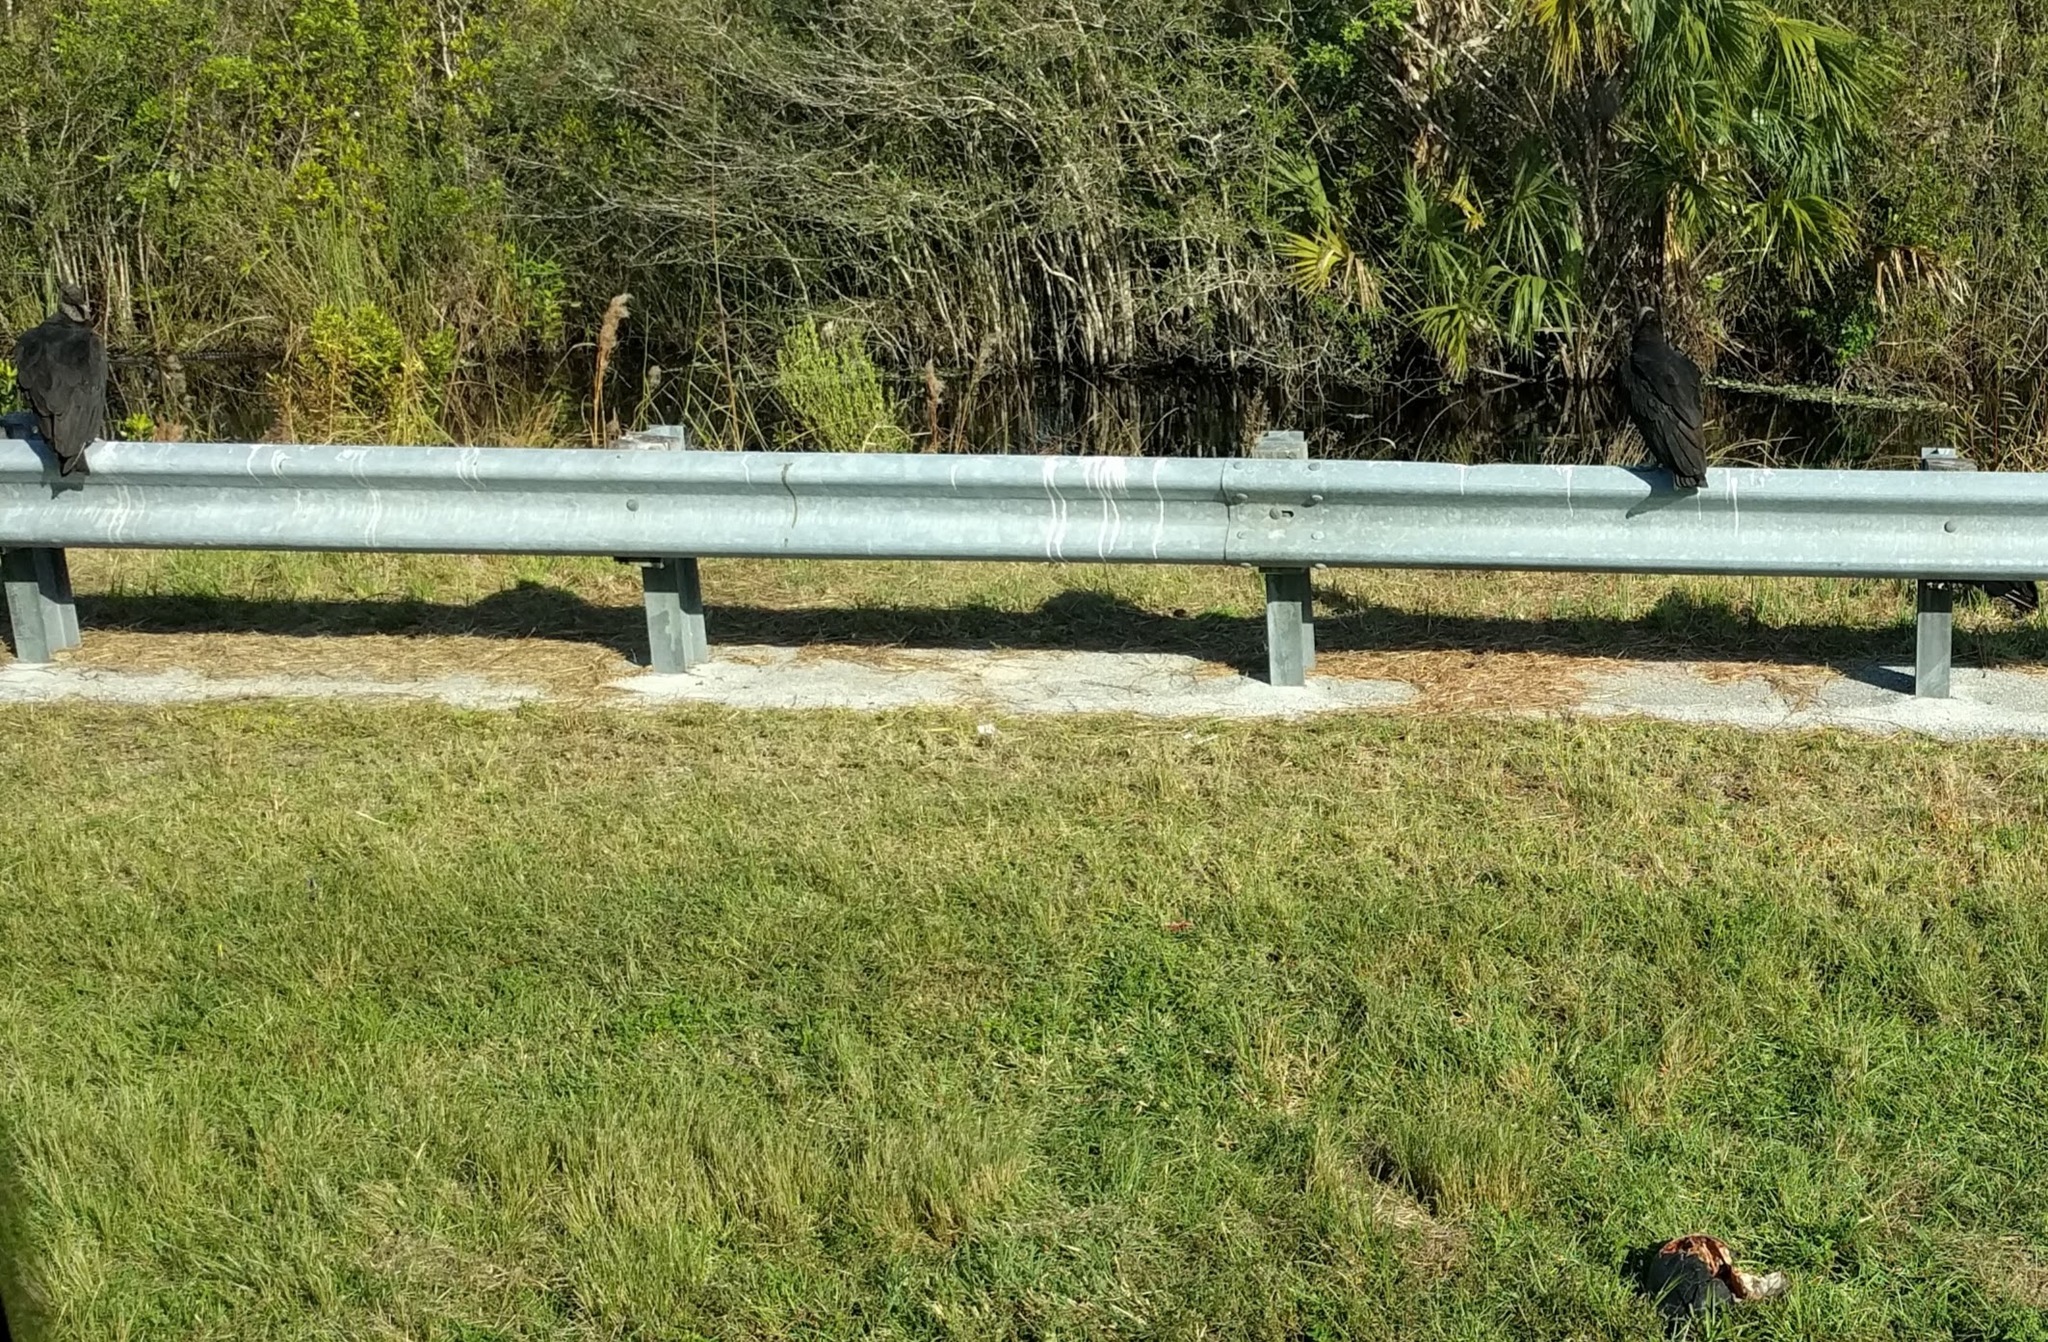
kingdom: Animalia
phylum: Chordata
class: Aves
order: Accipitriformes
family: Cathartidae
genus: Coragyps
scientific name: Coragyps atratus
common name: Black vulture
